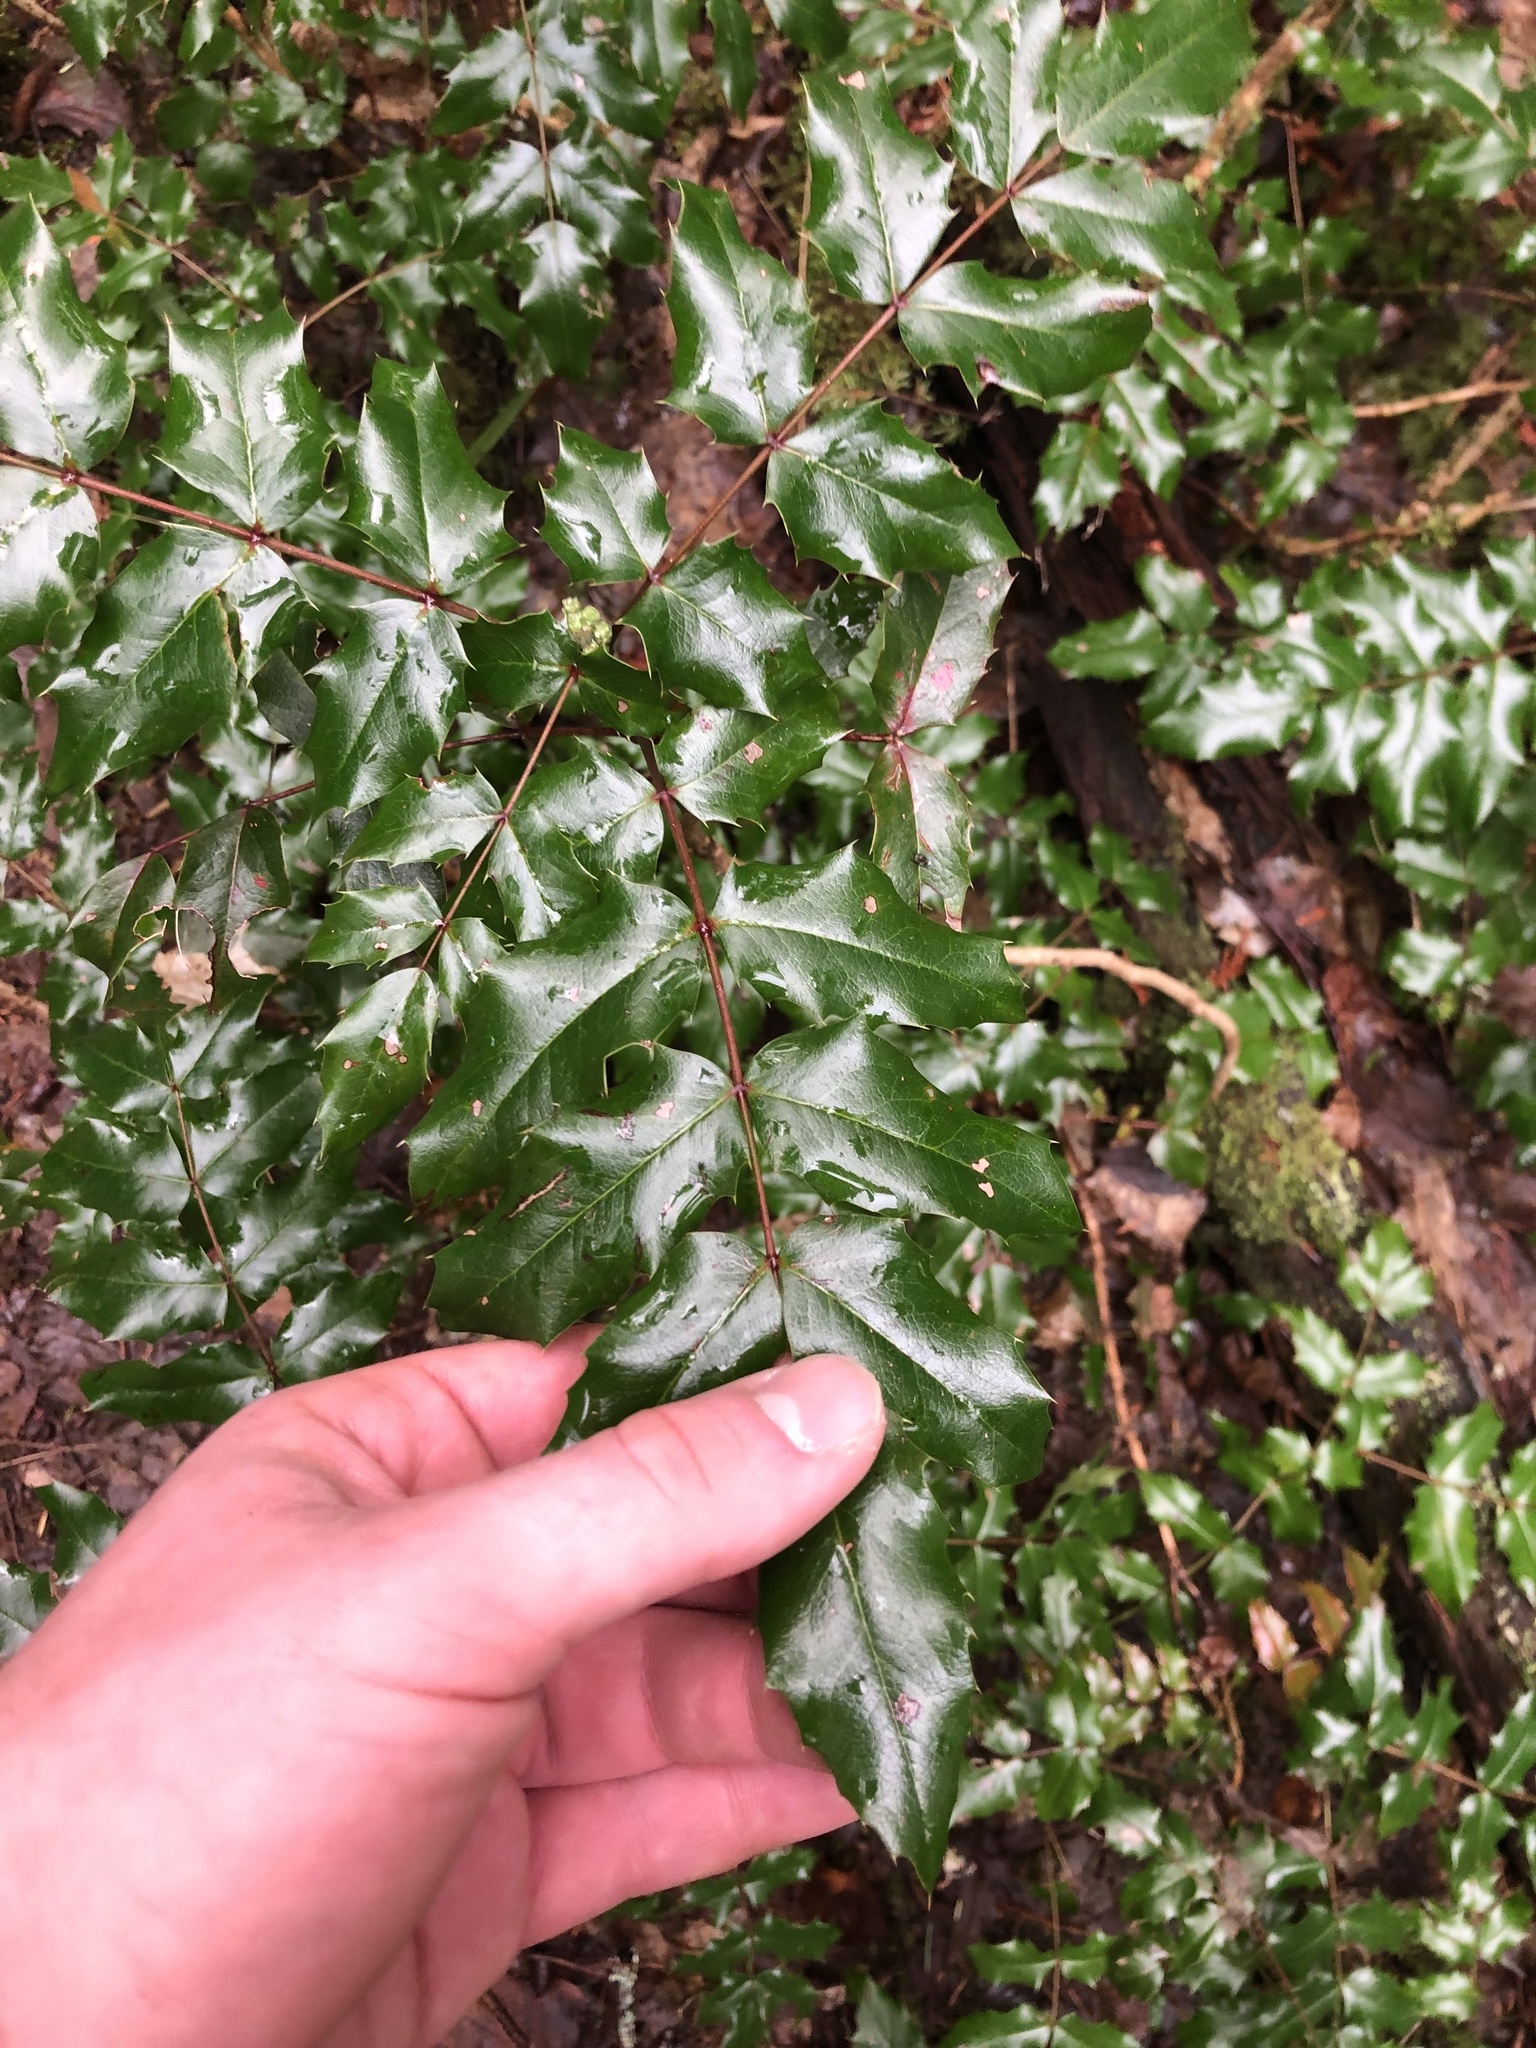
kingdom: Plantae
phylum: Tracheophyta
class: Magnoliopsida
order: Ranunculales
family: Berberidaceae
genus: Mahonia
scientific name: Mahonia aquifolium
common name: Oregon-grape
